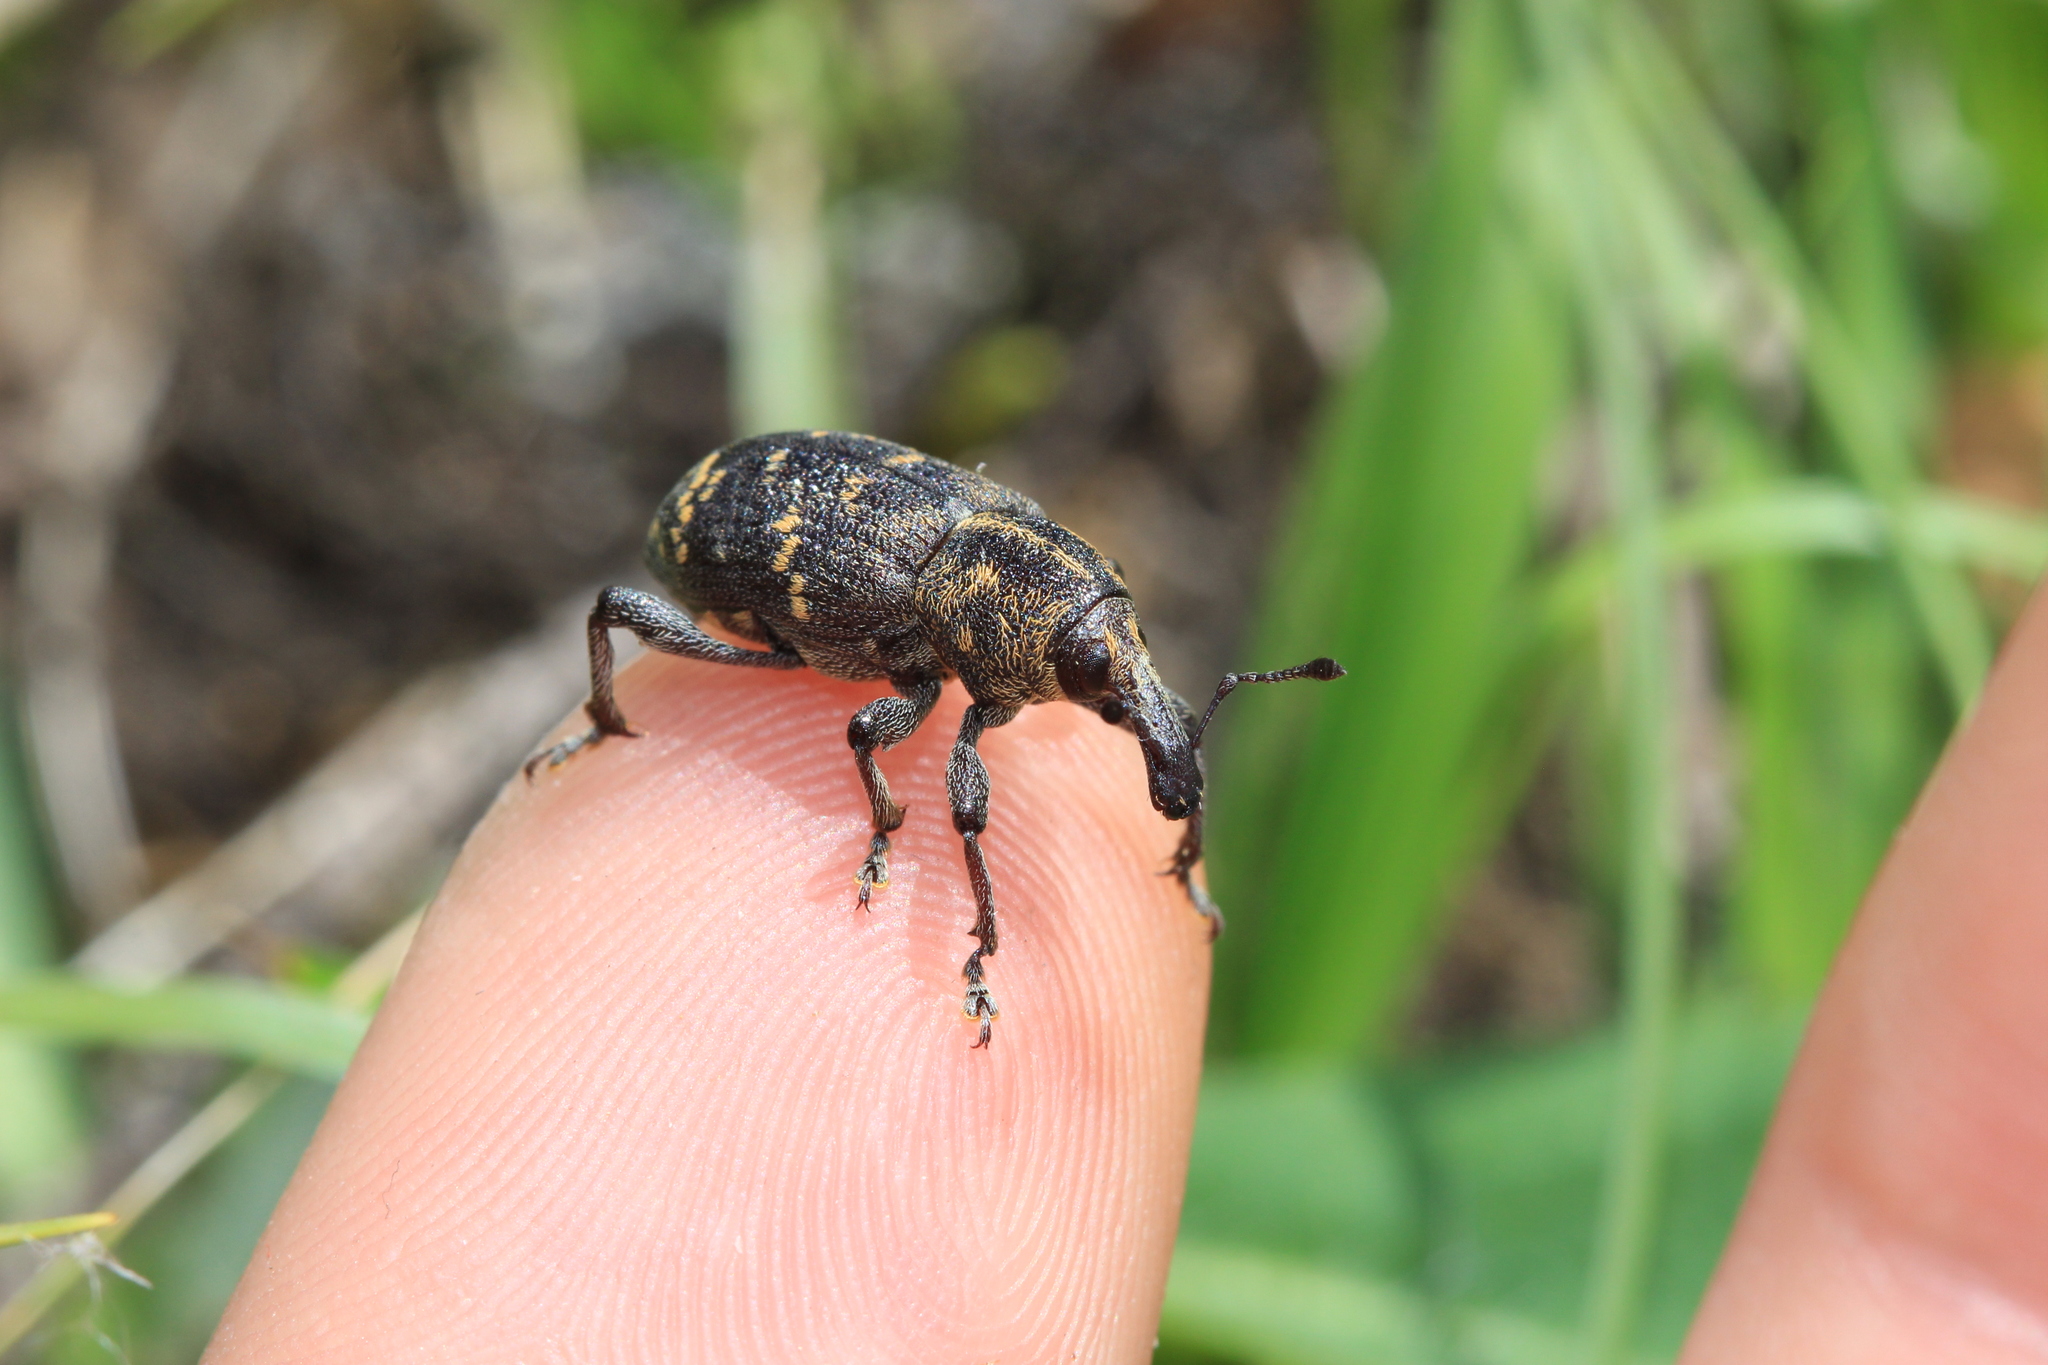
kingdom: Animalia
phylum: Arthropoda
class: Insecta
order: Coleoptera
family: Curculionidae
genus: Hylobius
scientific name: Hylobius abietis
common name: Large pine weevil
